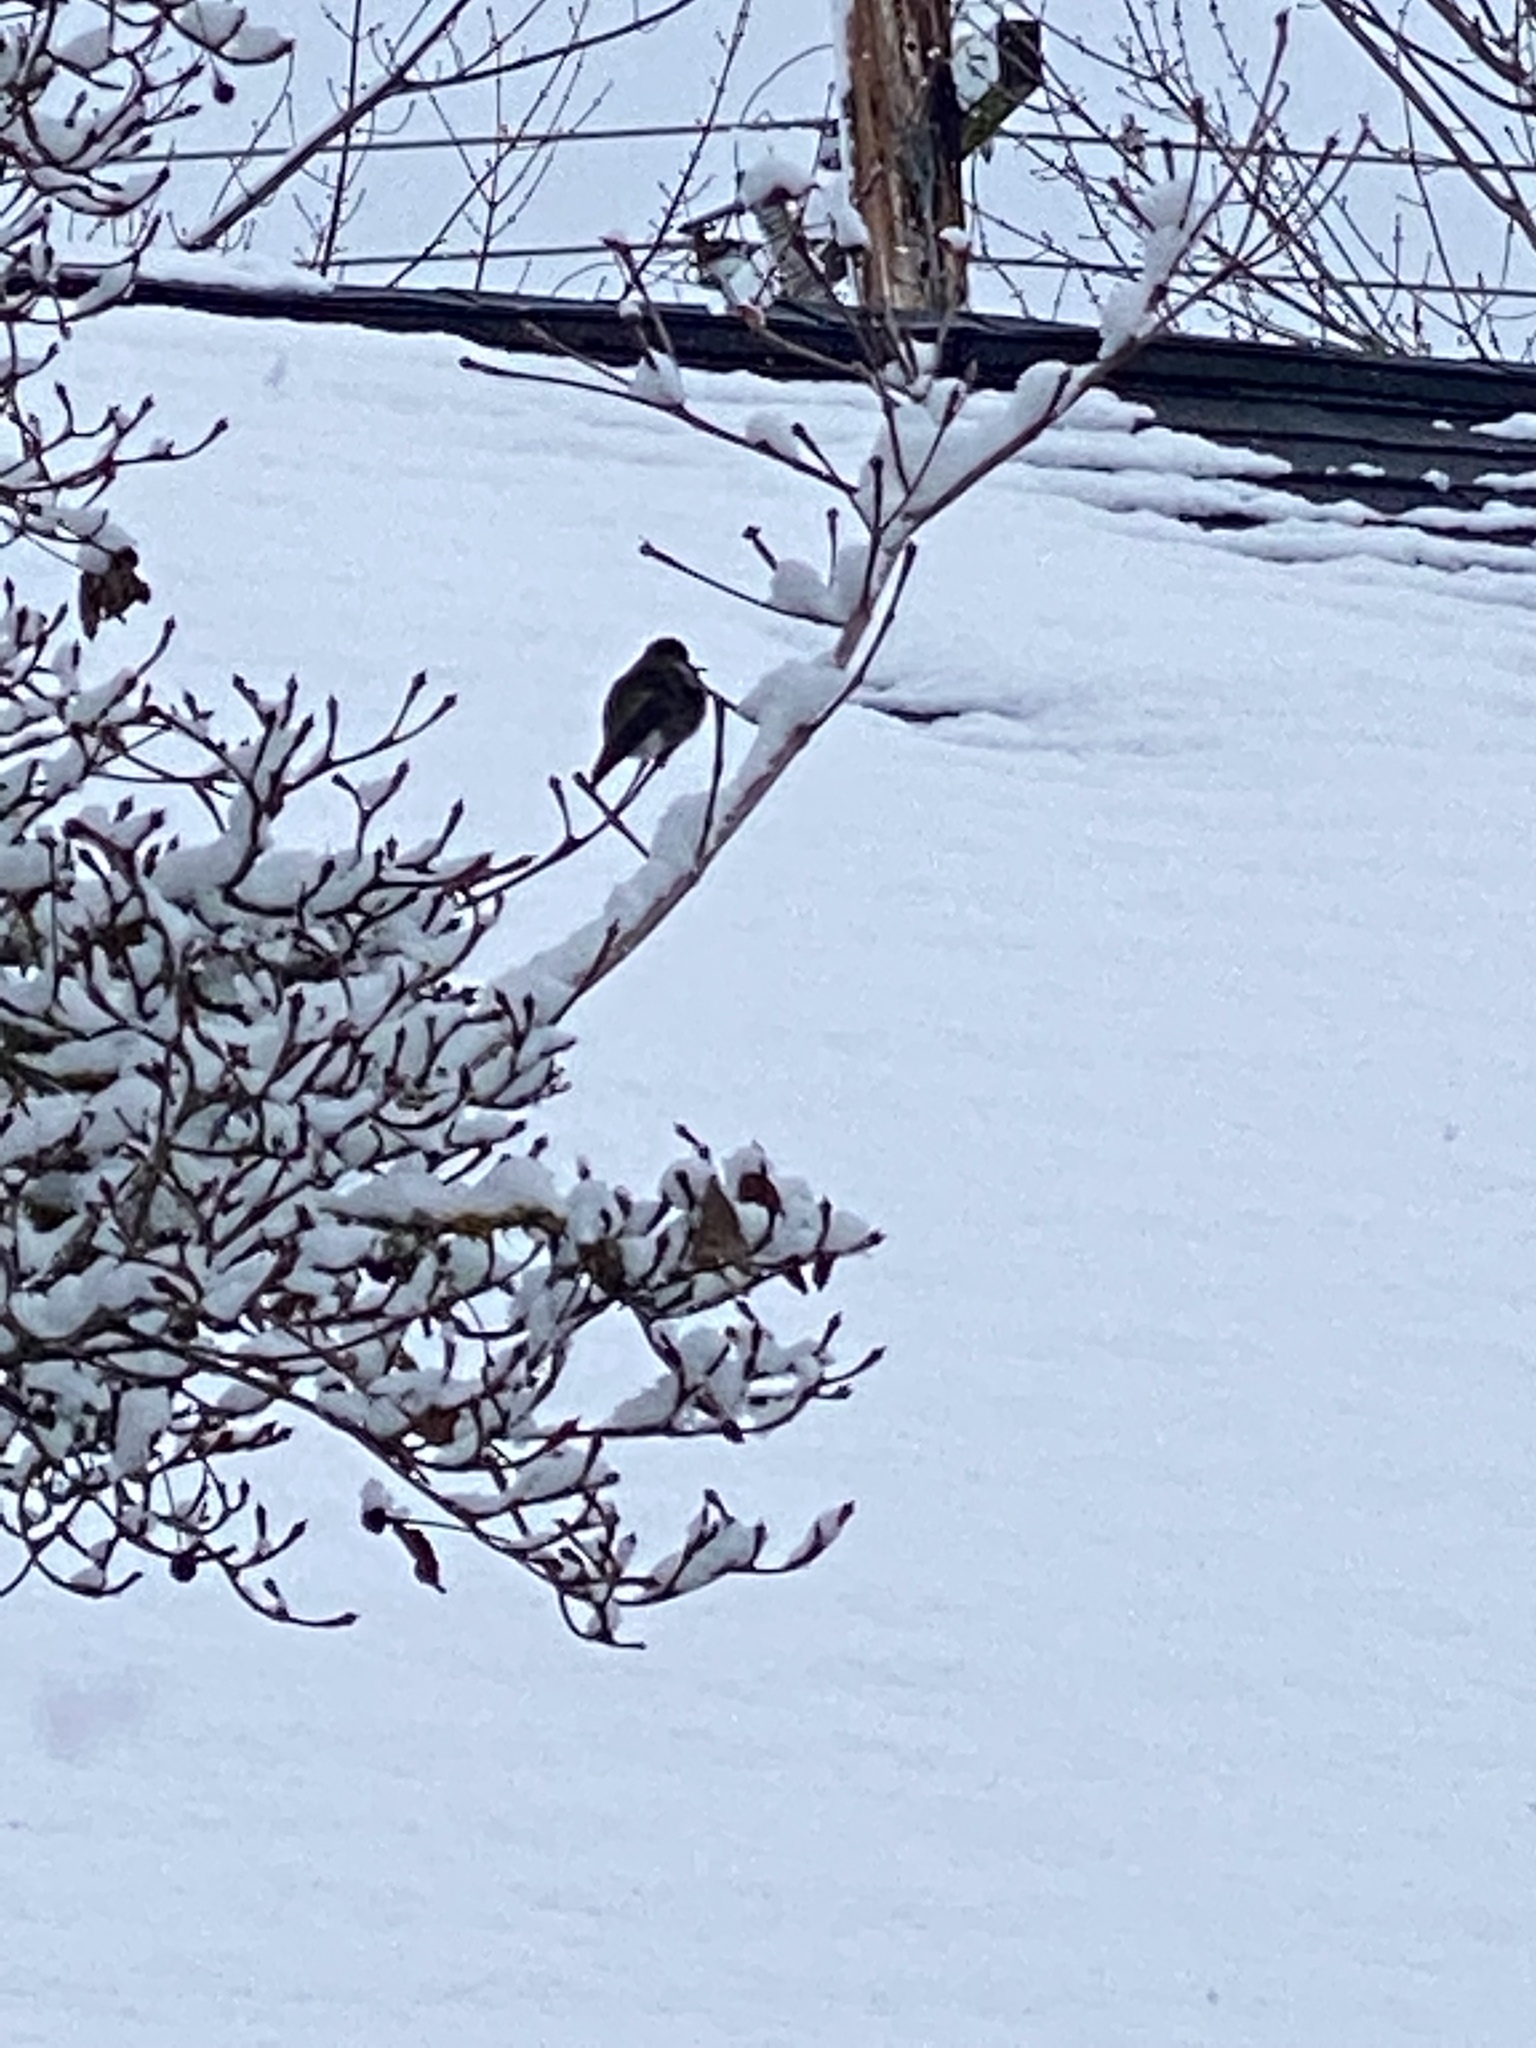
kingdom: Animalia
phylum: Chordata
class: Aves
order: Apodiformes
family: Trochilidae
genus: Calypte
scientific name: Calypte anna
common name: Anna's hummingbird
